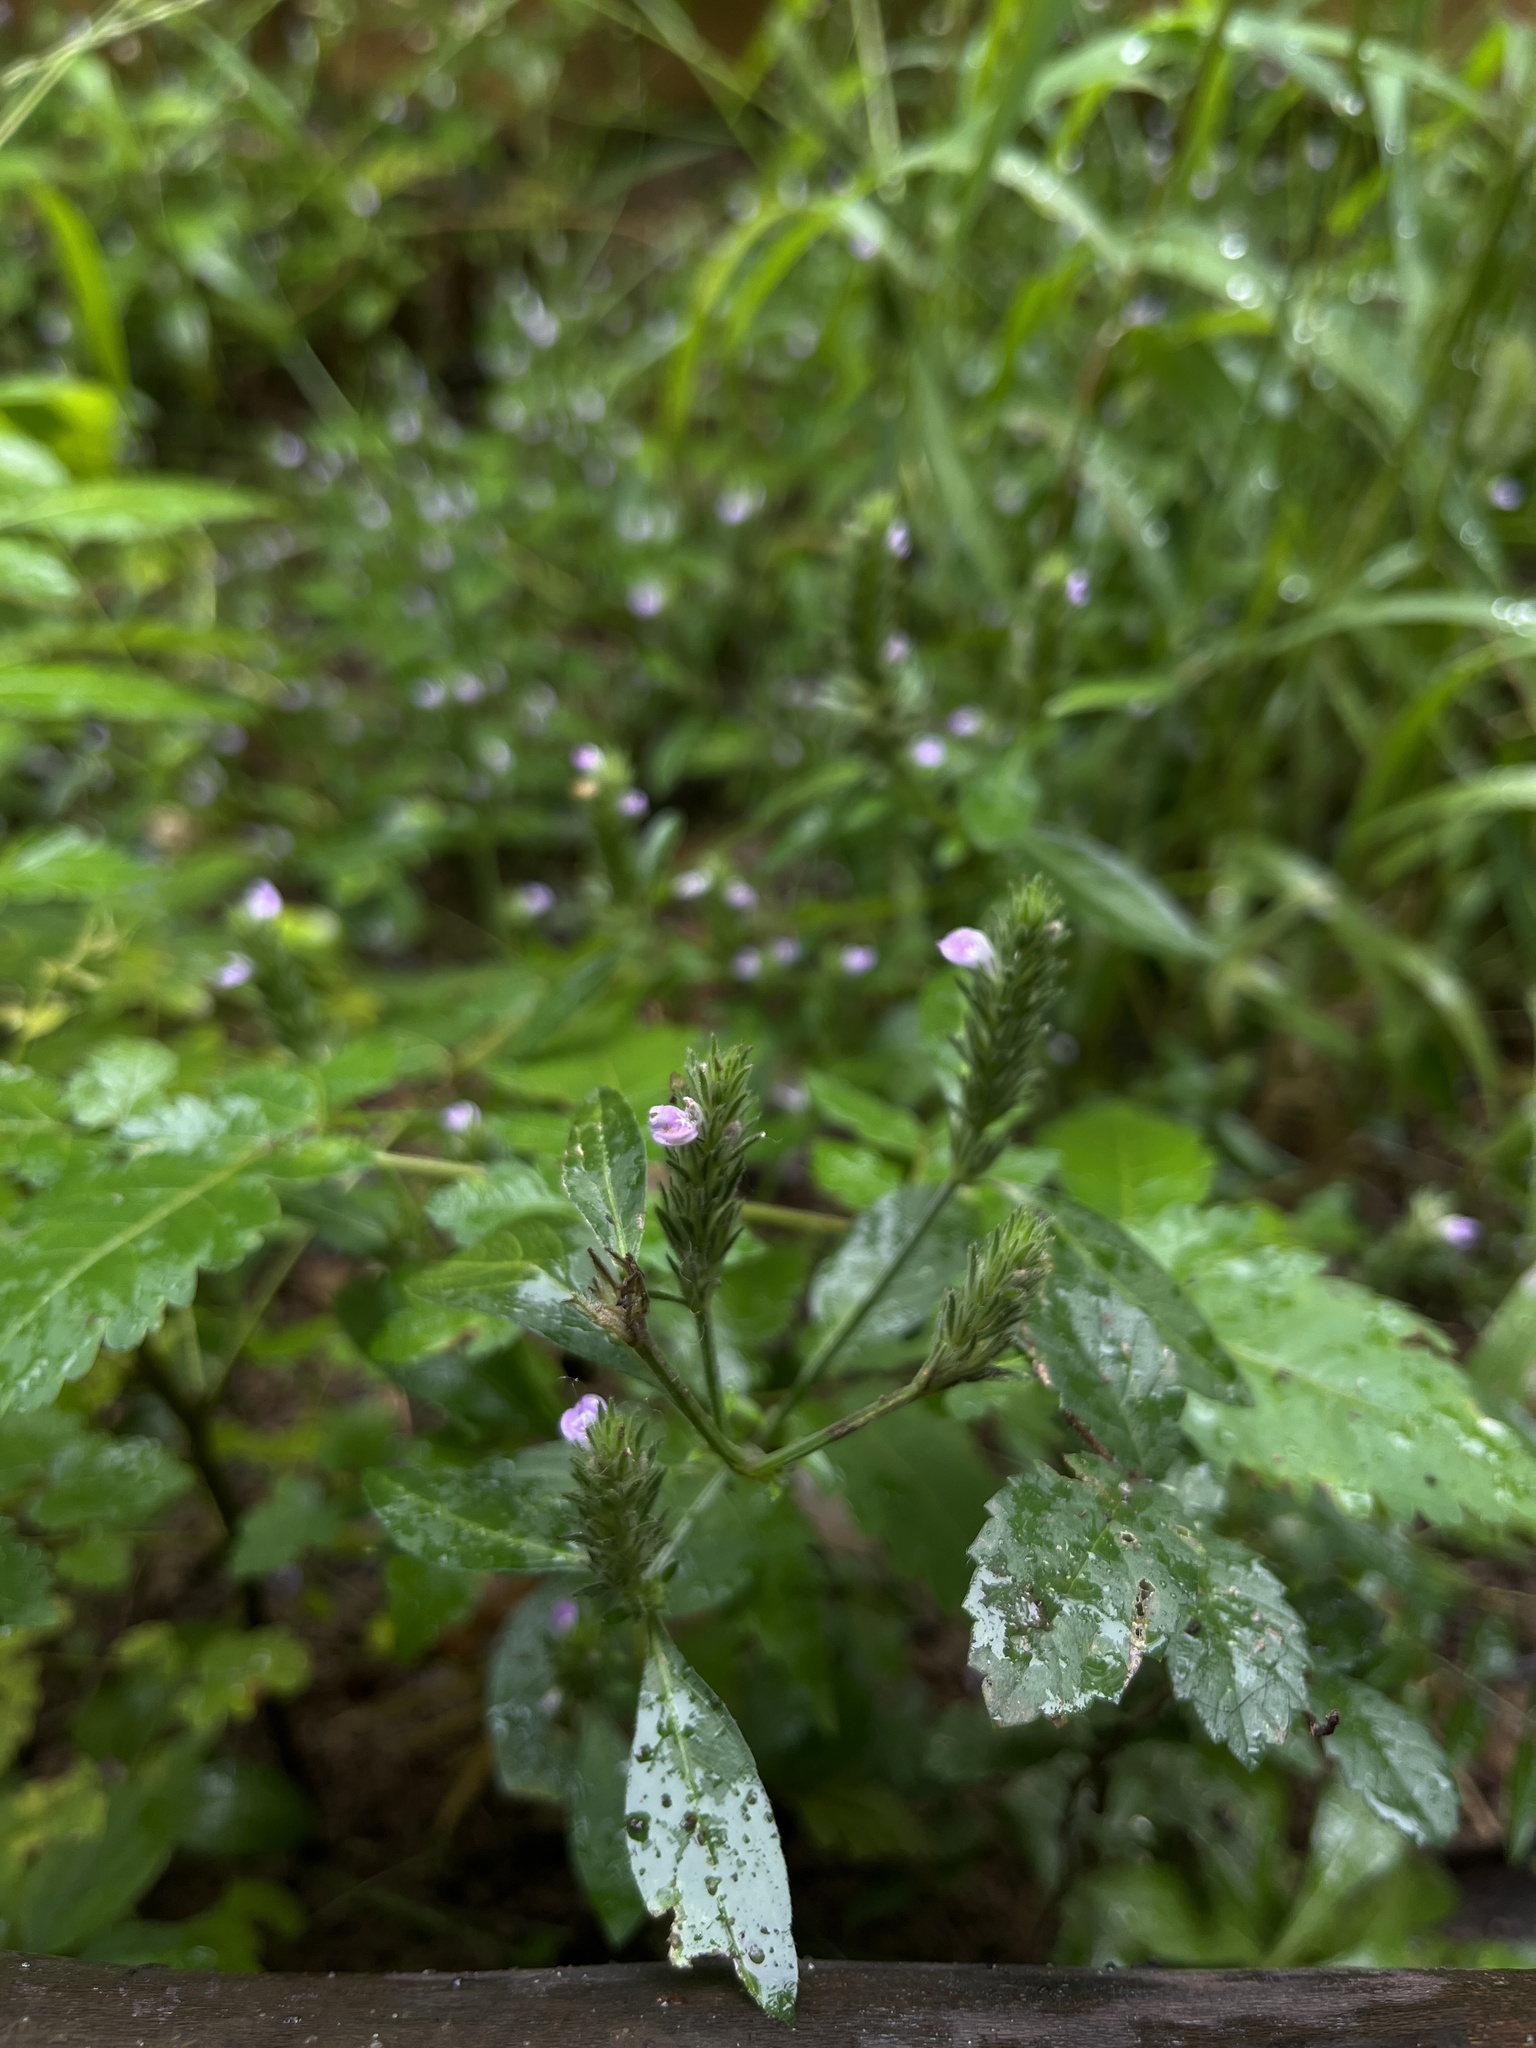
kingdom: Plantae
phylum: Tracheophyta
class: Magnoliopsida
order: Lamiales
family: Acanthaceae
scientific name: Acanthaceae
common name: Acanthaceae
